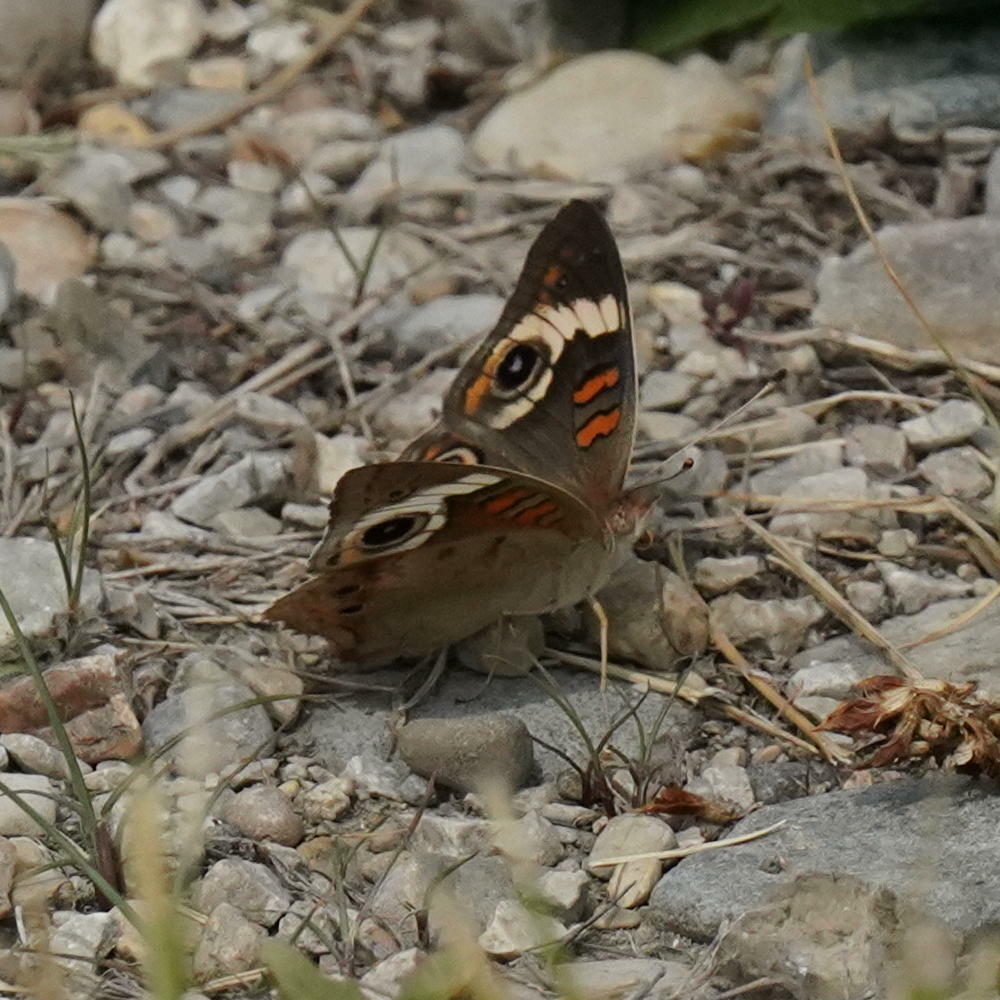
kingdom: Animalia
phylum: Arthropoda
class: Insecta
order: Lepidoptera
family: Nymphalidae
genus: Junonia
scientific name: Junonia coenia
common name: Common buckeye
